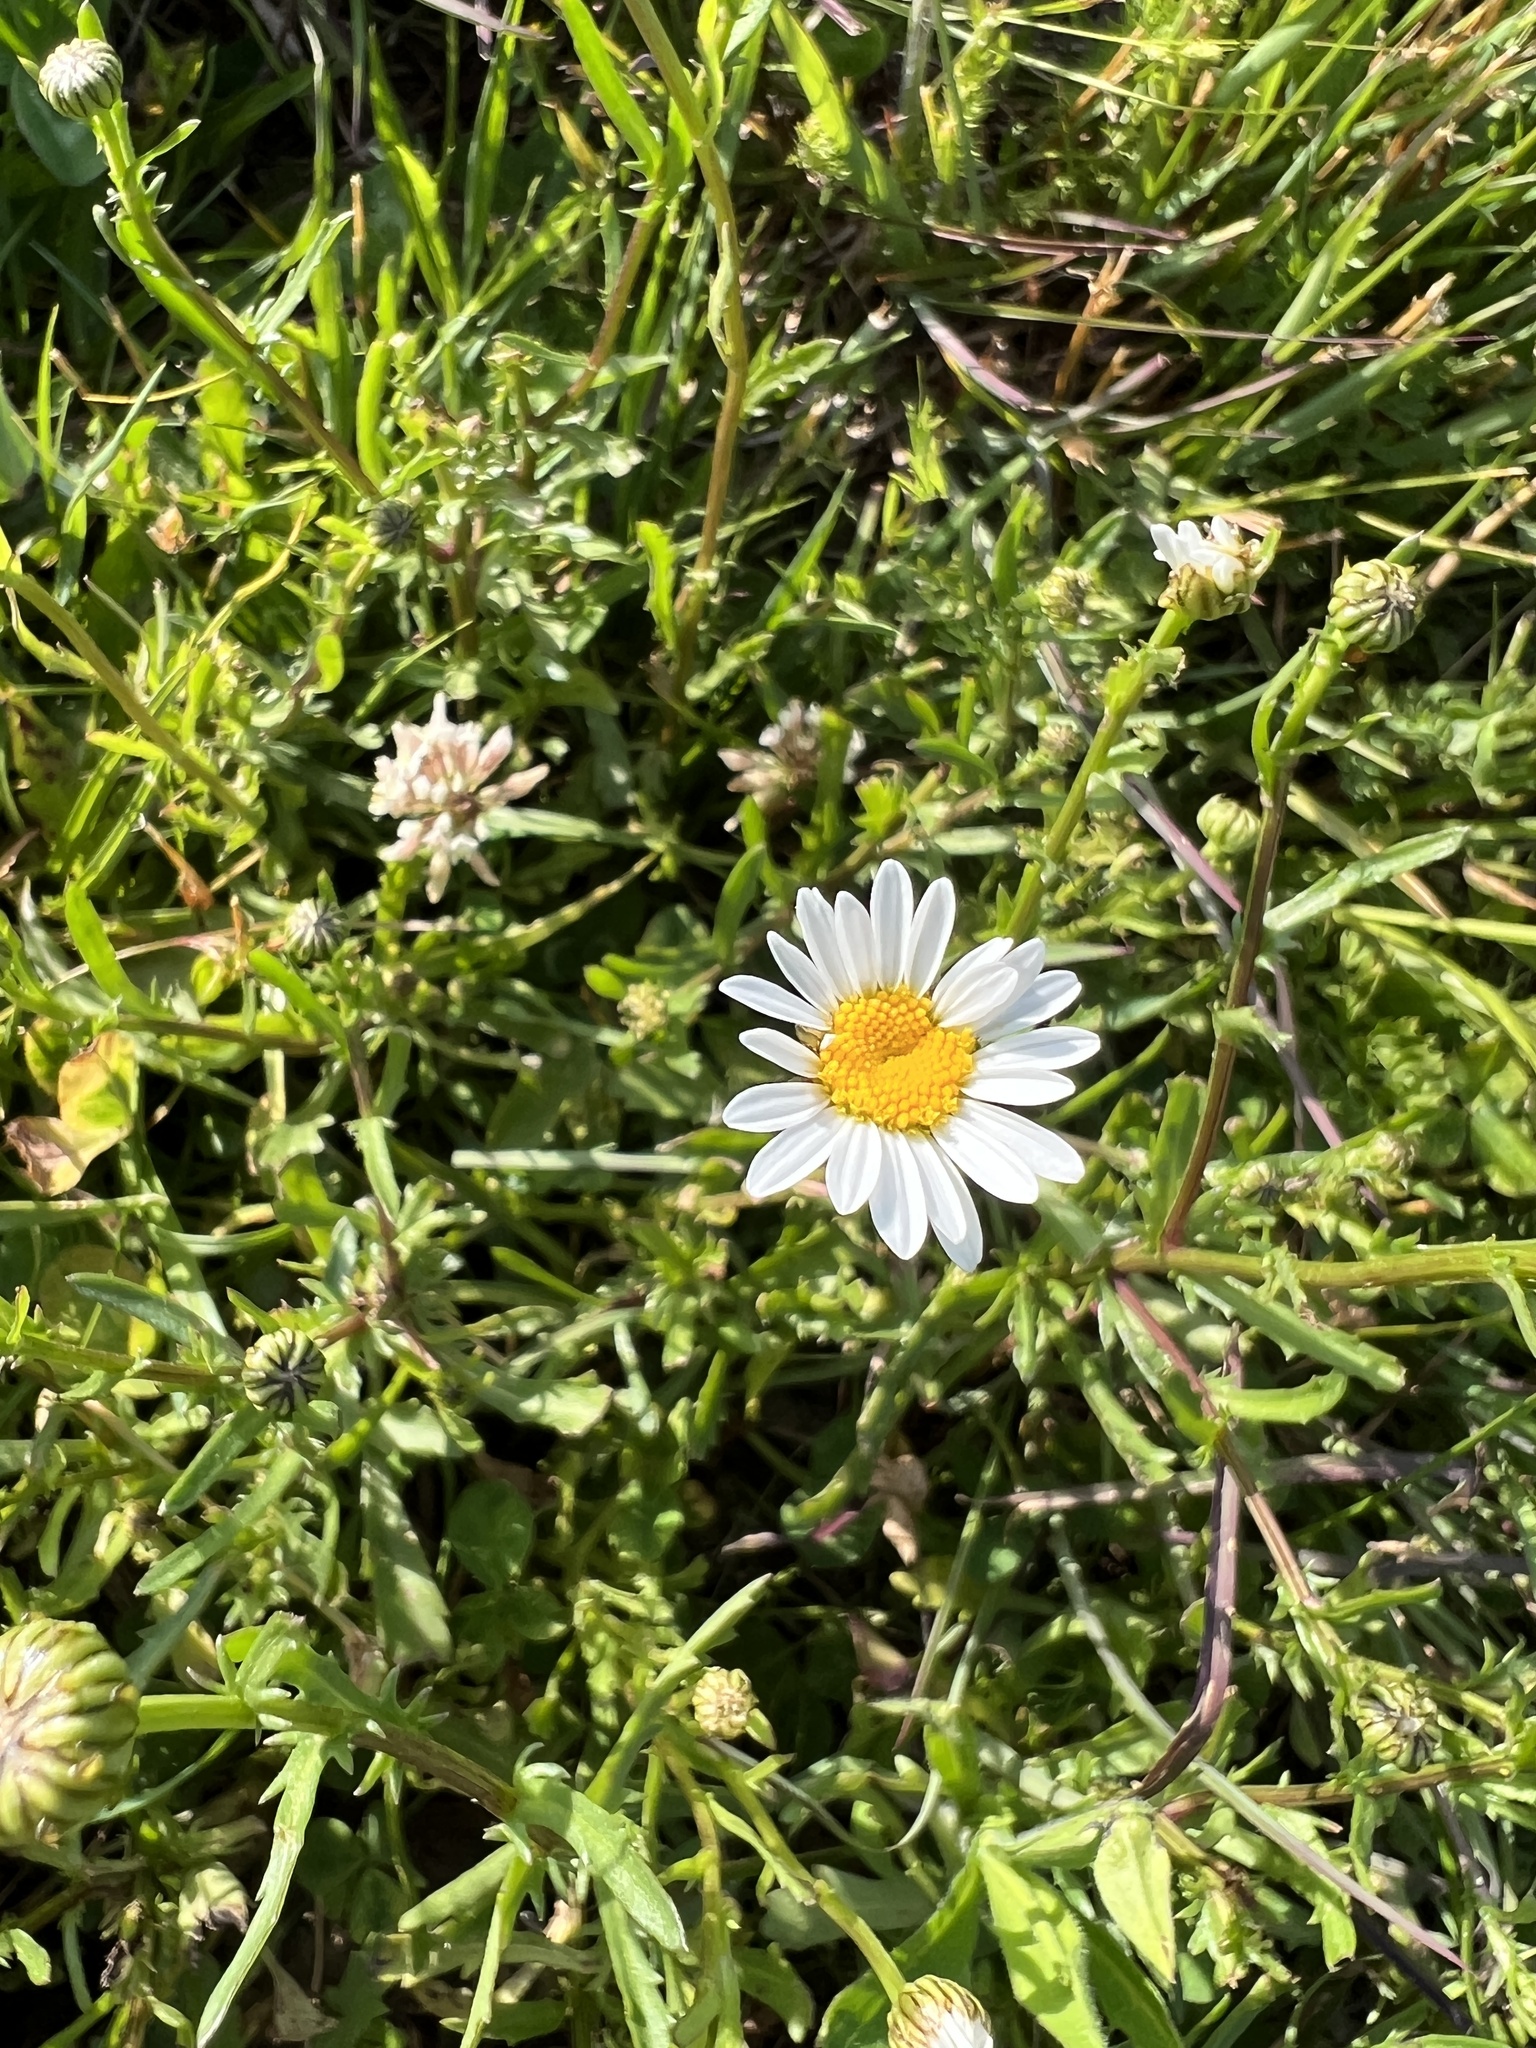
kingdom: Plantae
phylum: Tracheophyta
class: Magnoliopsida
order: Asterales
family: Asteraceae
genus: Leucanthemum
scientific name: Leucanthemum vulgare
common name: Oxeye daisy
